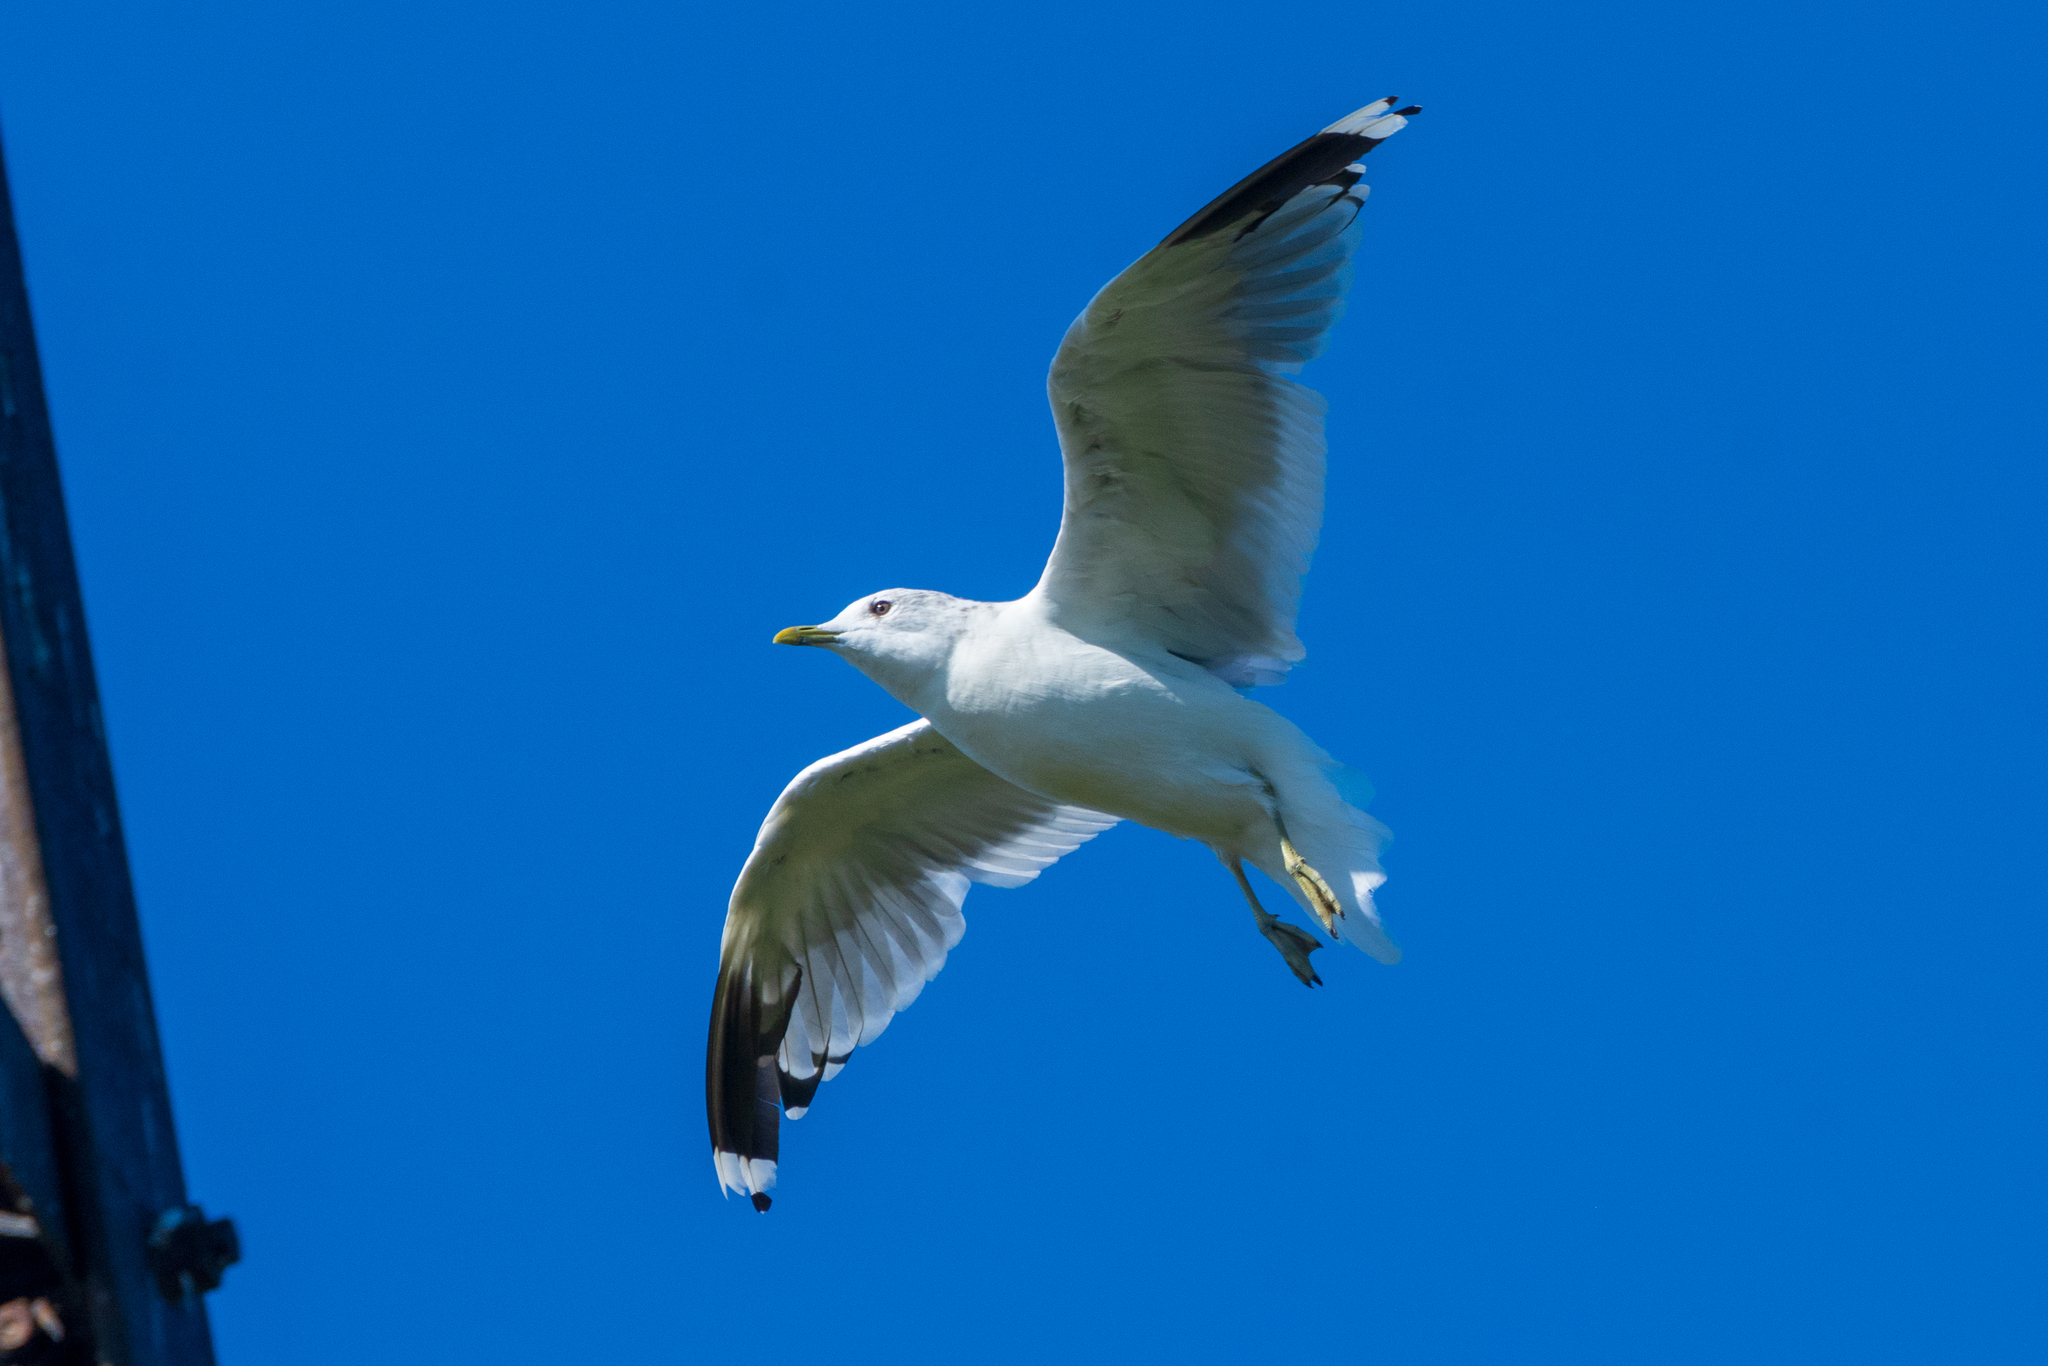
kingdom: Animalia
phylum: Chordata
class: Aves
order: Charadriiformes
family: Laridae
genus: Larus
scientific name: Larus canus
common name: Mew gull
